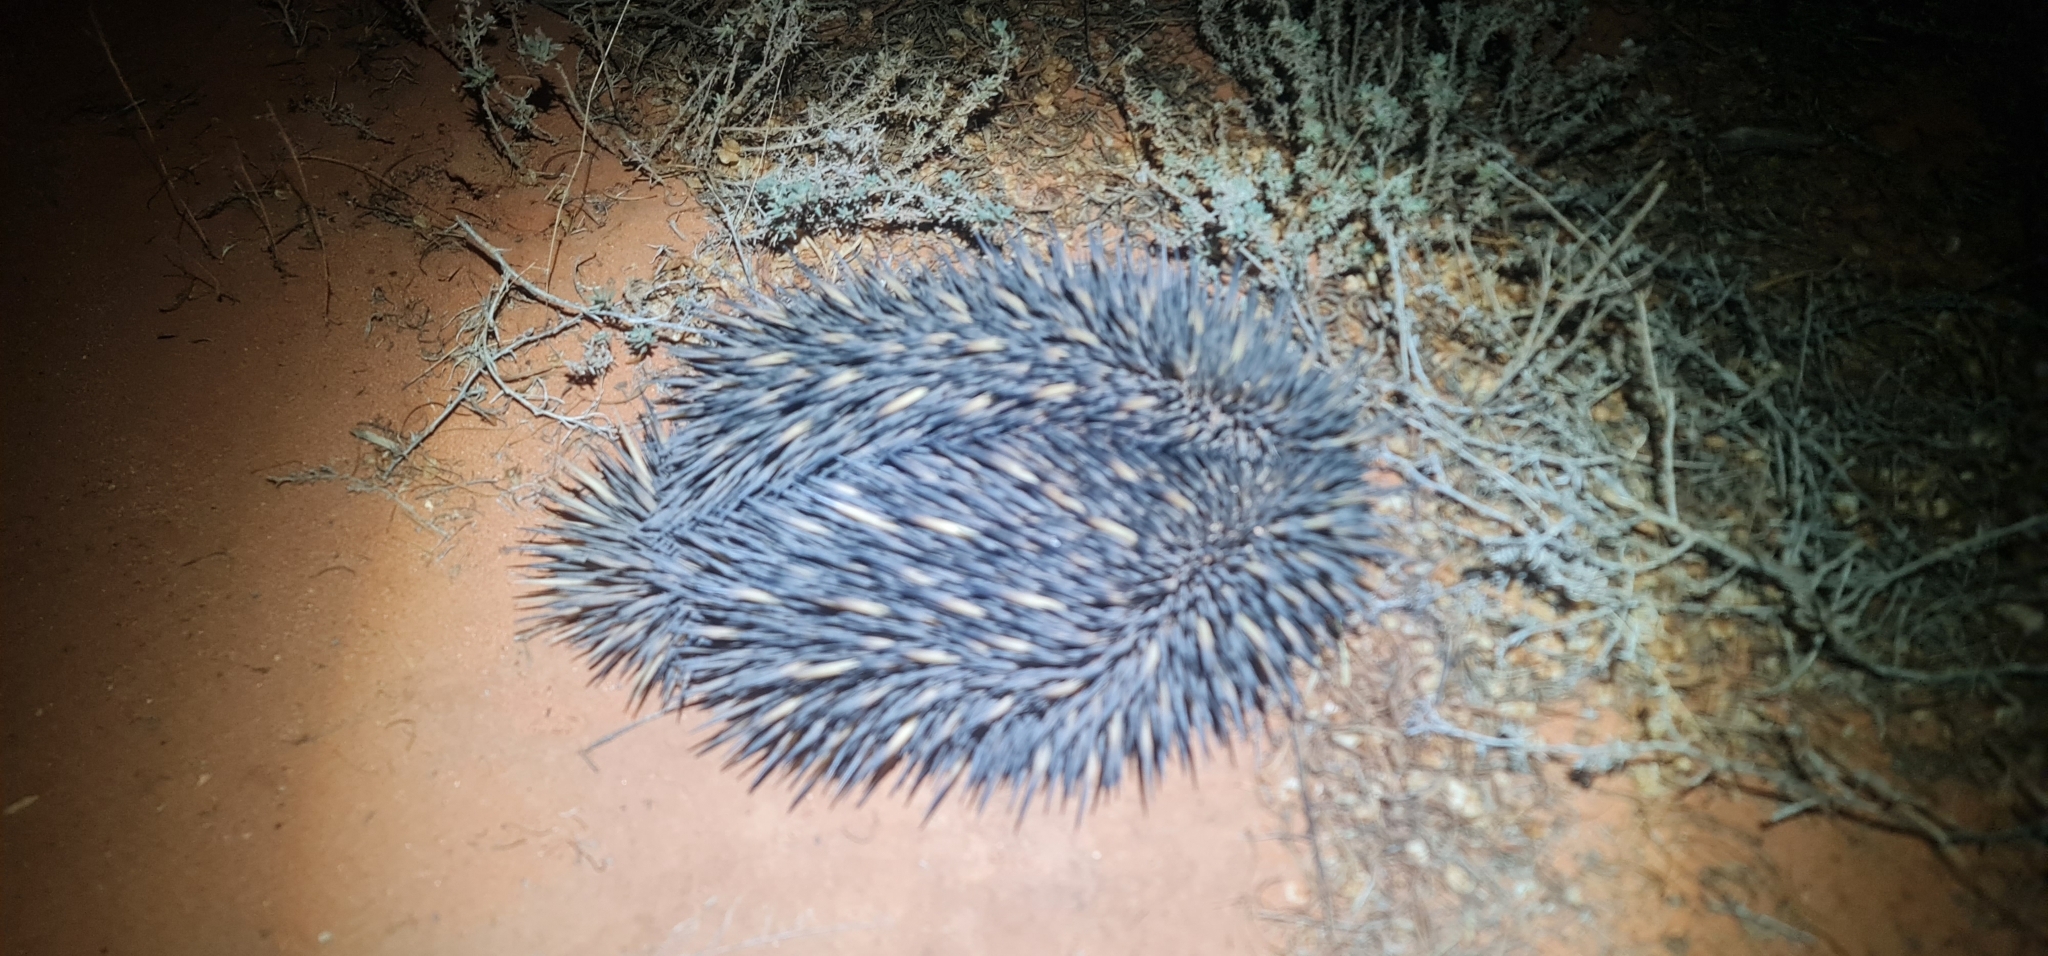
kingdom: Animalia
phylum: Chordata
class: Mammalia
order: Monotremata
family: Tachyglossidae
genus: Tachyglossus
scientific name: Tachyglossus aculeatus
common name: Short-beaked echidna
